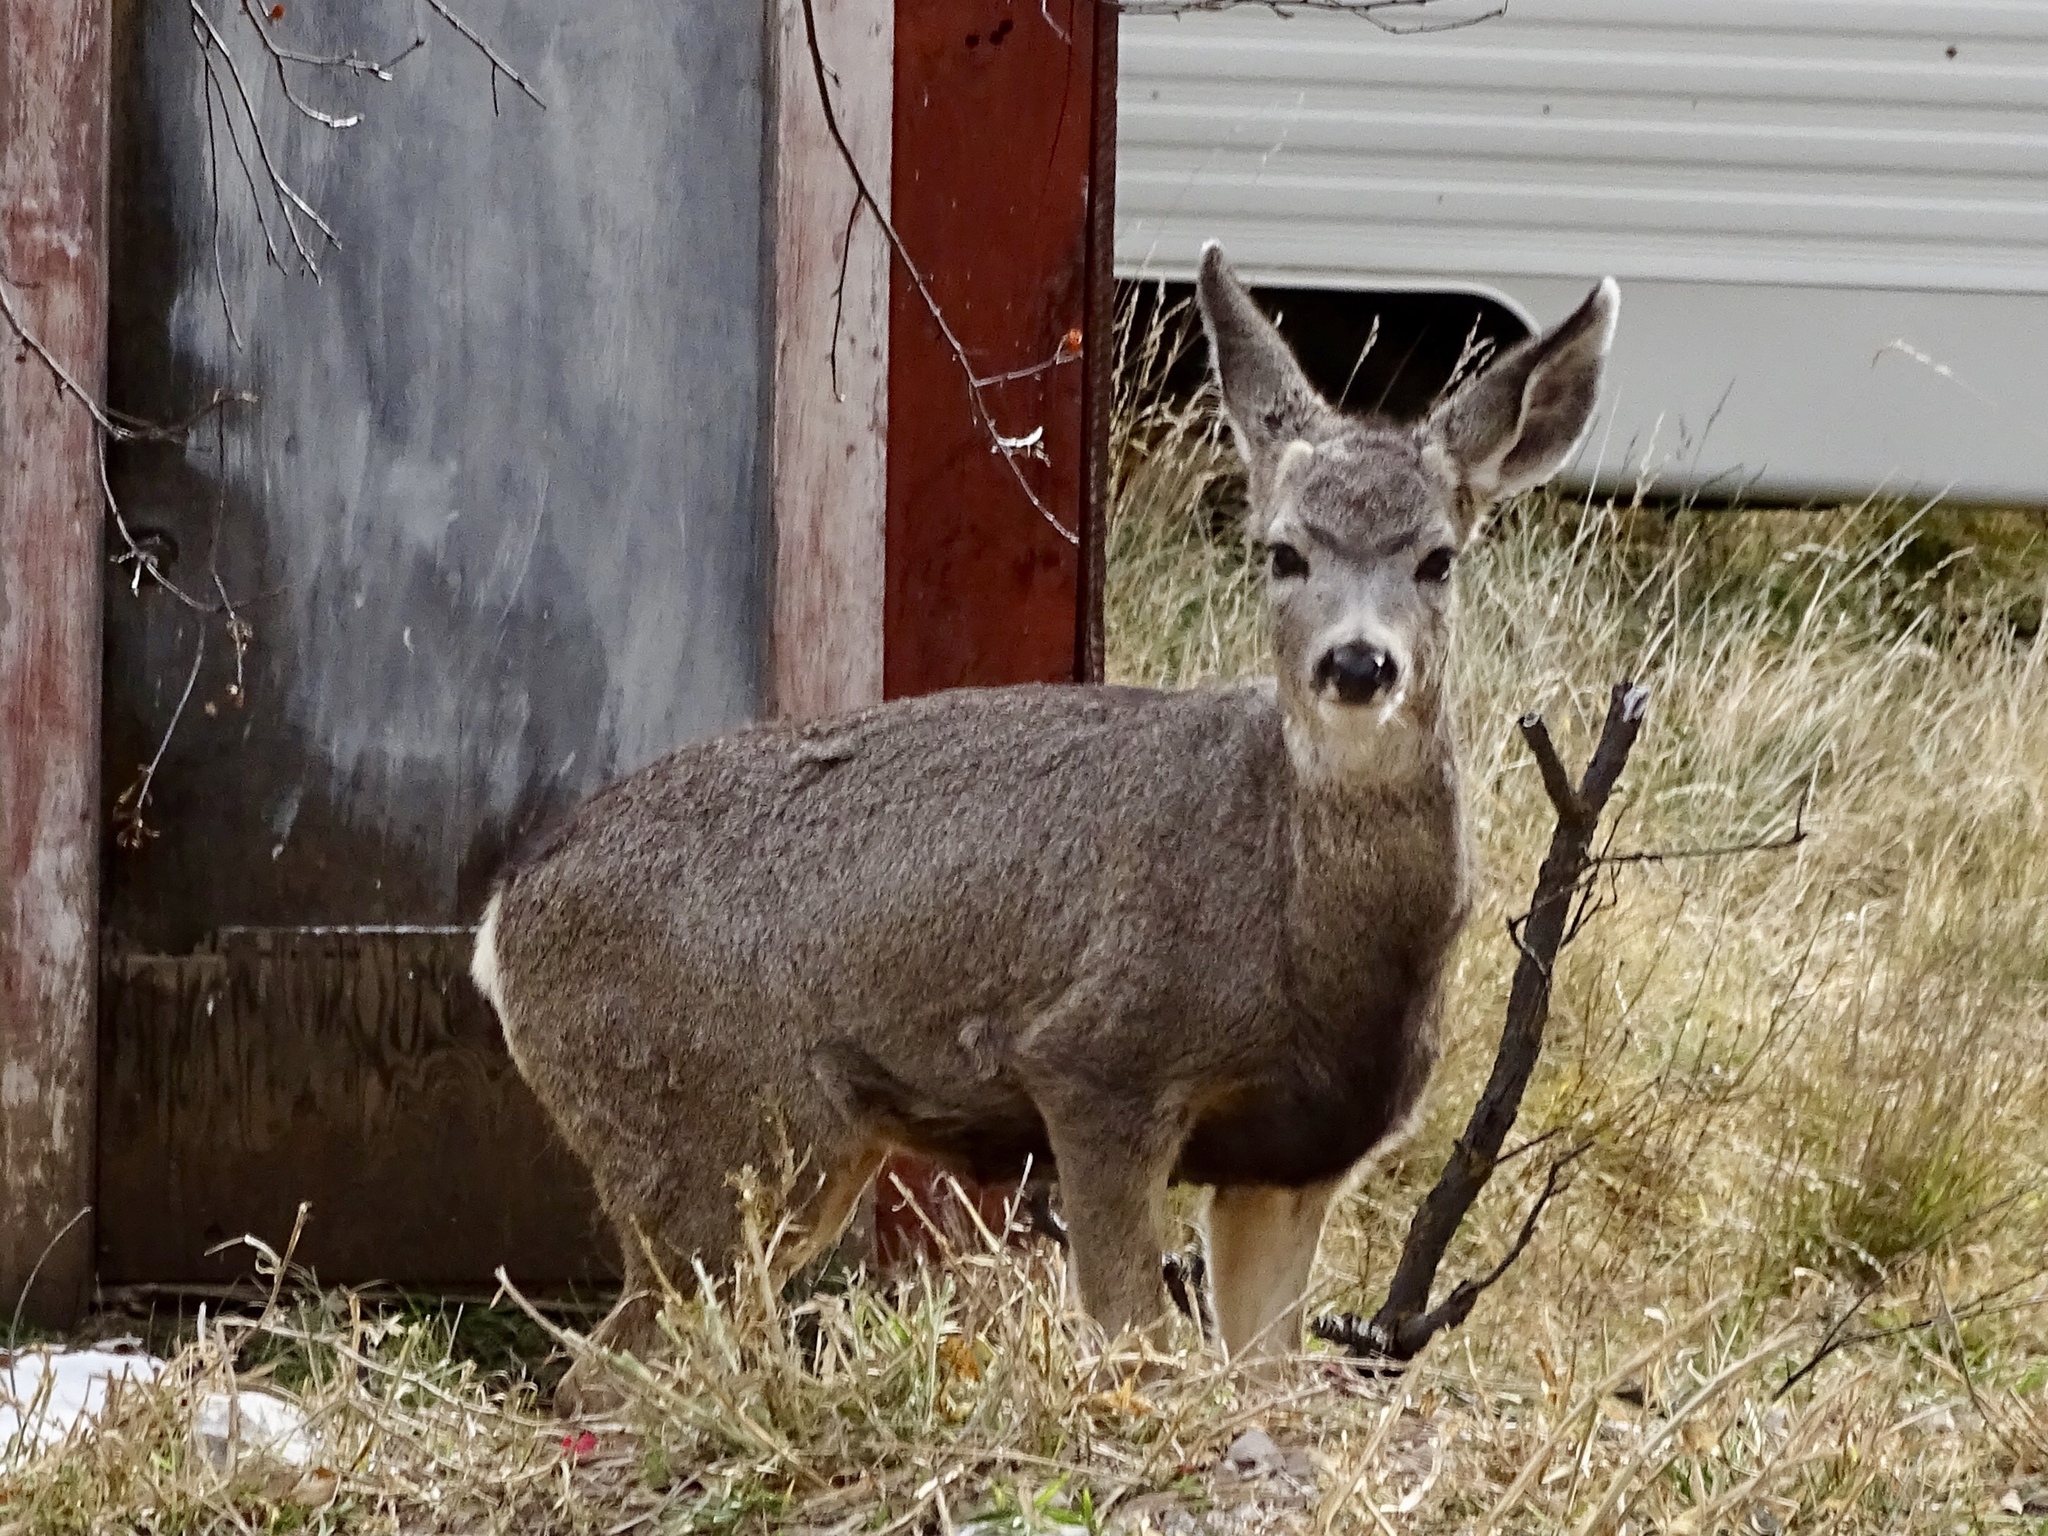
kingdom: Animalia
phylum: Chordata
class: Mammalia
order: Artiodactyla
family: Cervidae
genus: Odocoileus
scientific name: Odocoileus hemionus
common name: Mule deer
